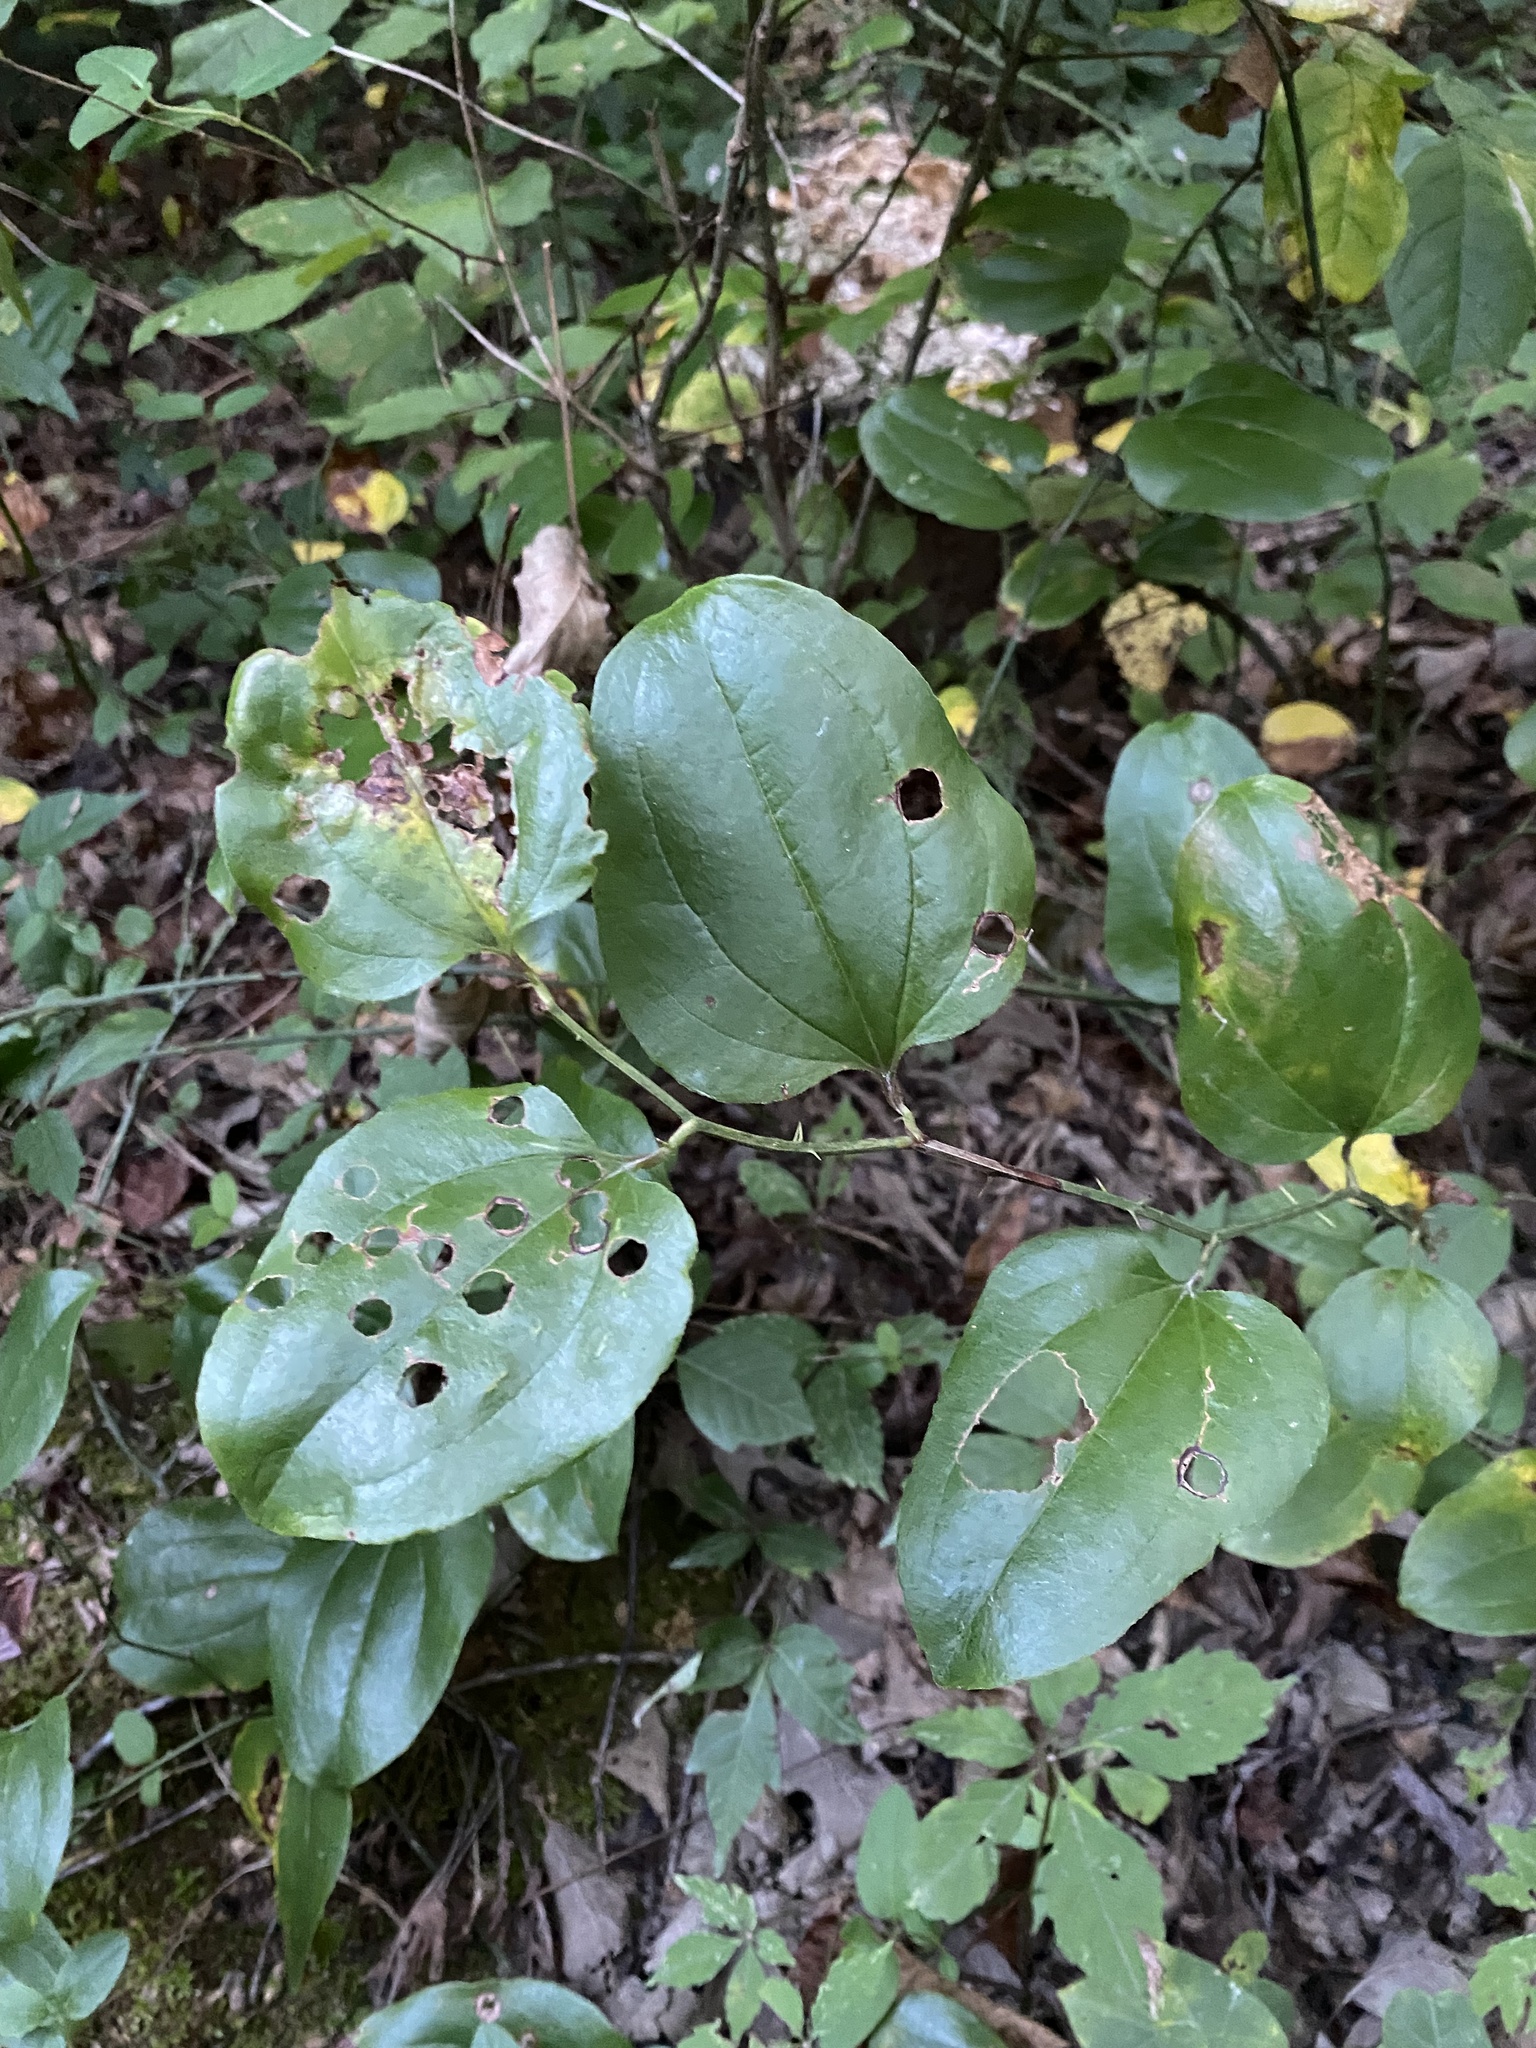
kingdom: Plantae
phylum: Tracheophyta
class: Liliopsida
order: Liliales
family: Smilacaceae
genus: Smilax
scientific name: Smilax tamnoides
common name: Hellfetter
